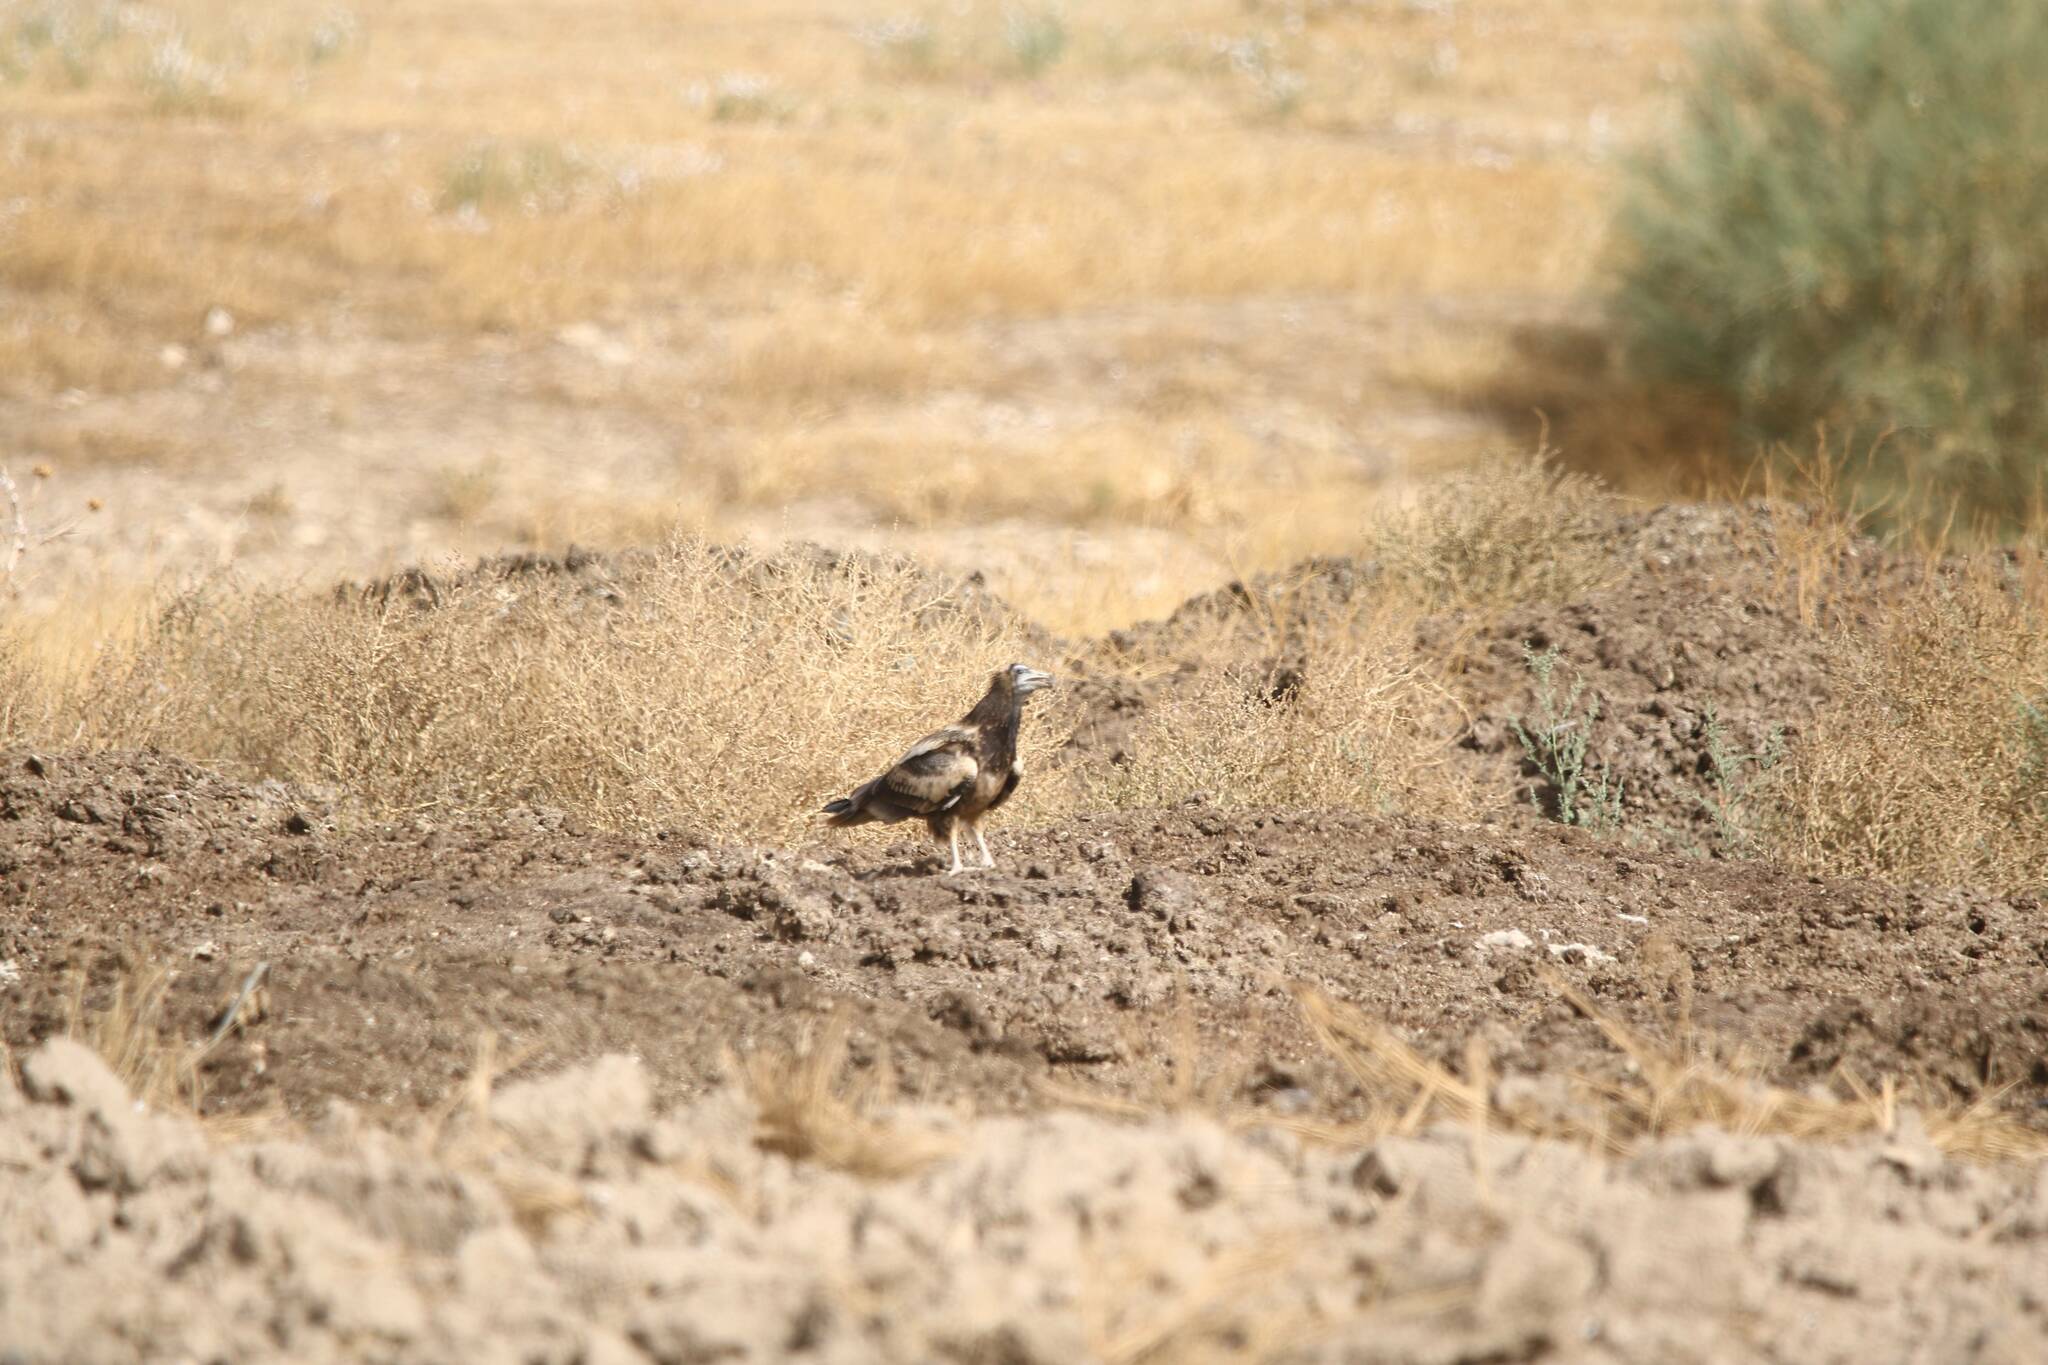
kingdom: Animalia
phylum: Chordata
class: Aves
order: Accipitriformes
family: Accipitridae
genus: Neophron
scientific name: Neophron percnopterus
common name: Egyptian vulture
